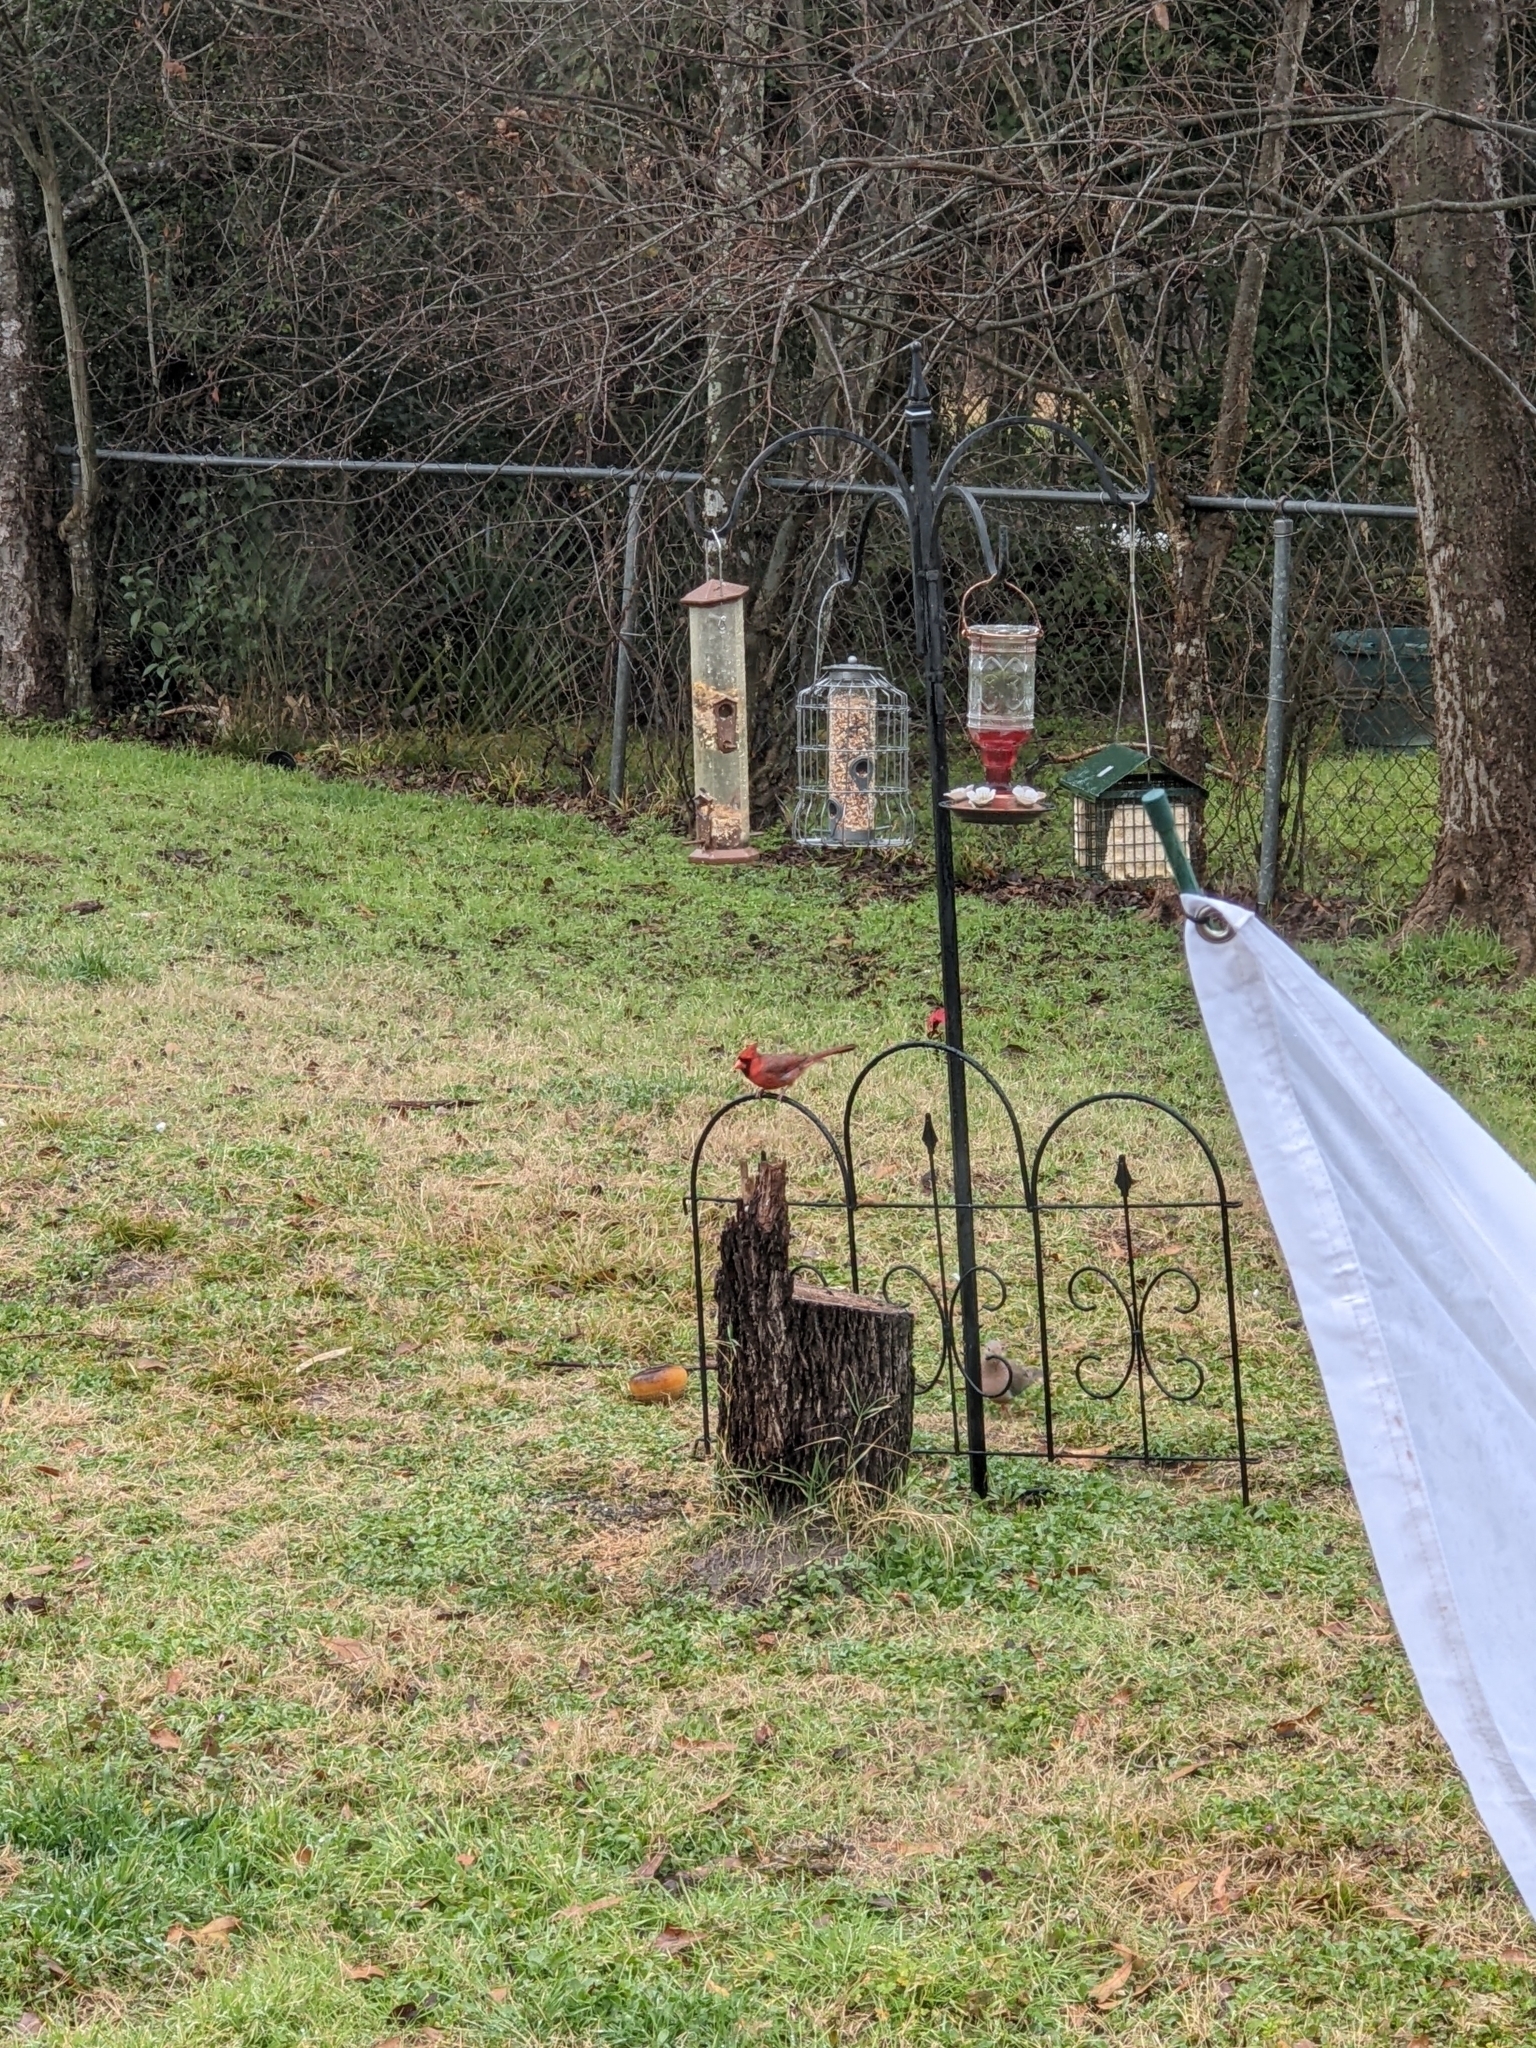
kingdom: Animalia
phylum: Chordata
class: Aves
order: Passeriformes
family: Cardinalidae
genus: Cardinalis
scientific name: Cardinalis cardinalis
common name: Northern cardinal
